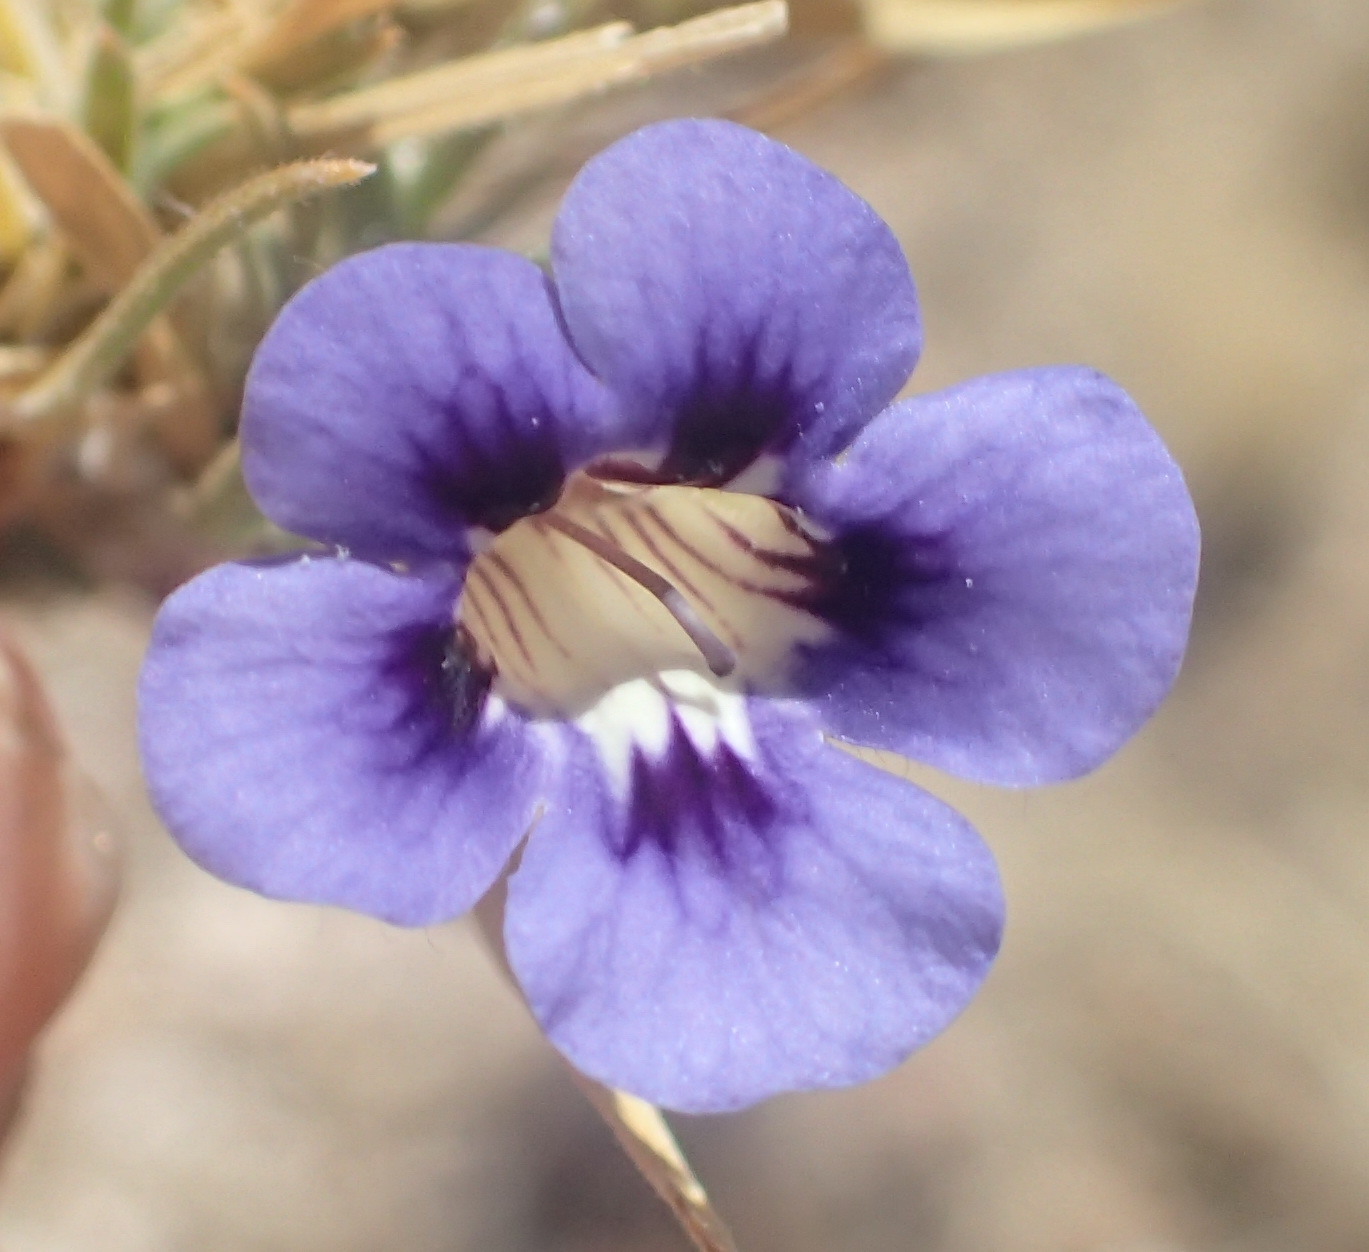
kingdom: Plantae
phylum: Tracheophyta
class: Magnoliopsida
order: Lamiales
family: Scrophulariaceae
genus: Aptosimum
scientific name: Aptosimum spinescens
